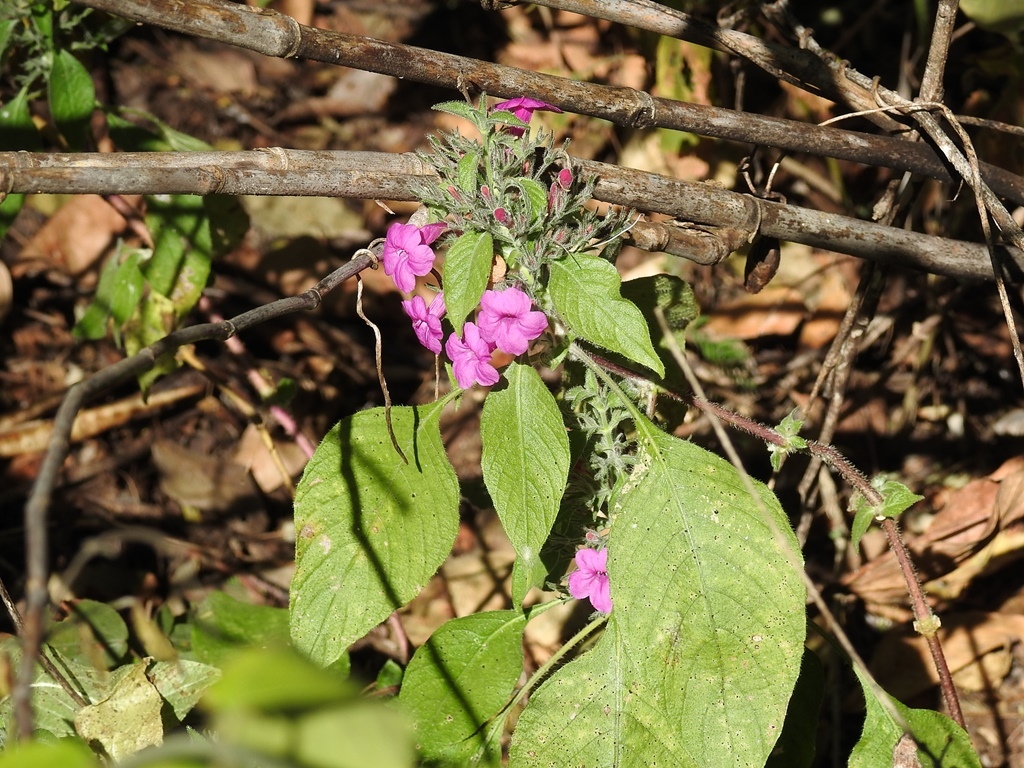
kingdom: Plantae
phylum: Tracheophyta
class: Magnoliopsida
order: Lamiales
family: Acanthaceae
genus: Ruellia
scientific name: Ruellia inundata
